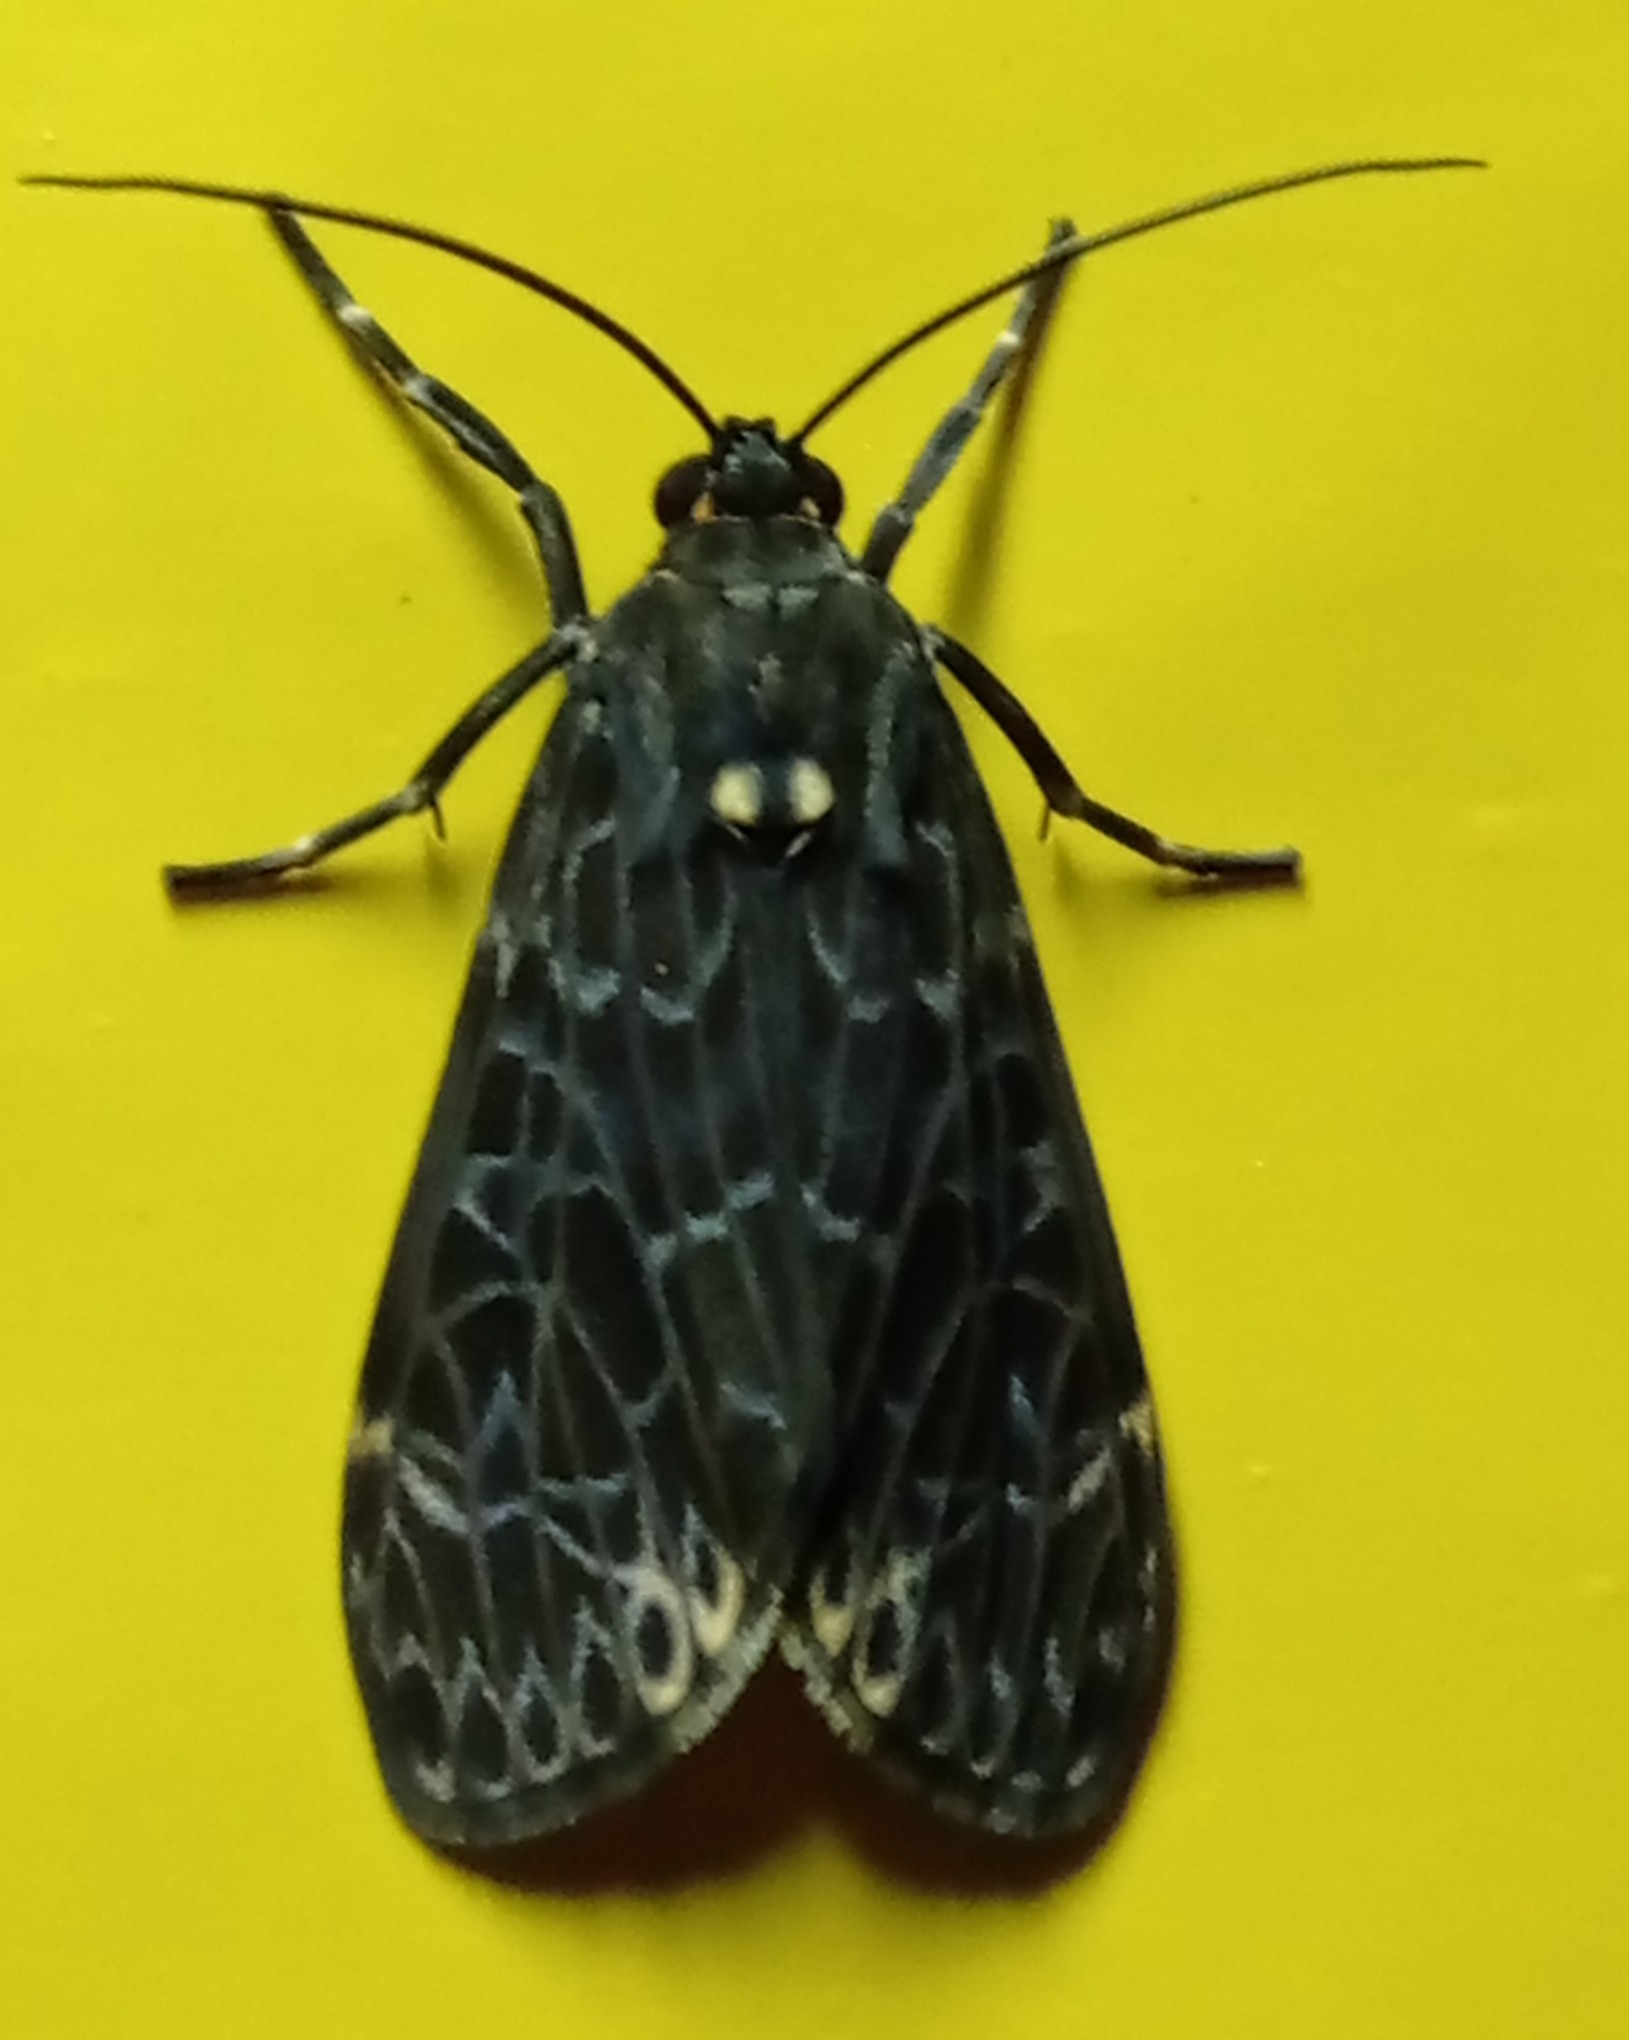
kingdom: Animalia
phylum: Arthropoda
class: Insecta
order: Lepidoptera
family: Erebidae
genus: Eucereon
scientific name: Eucereon sylvius
